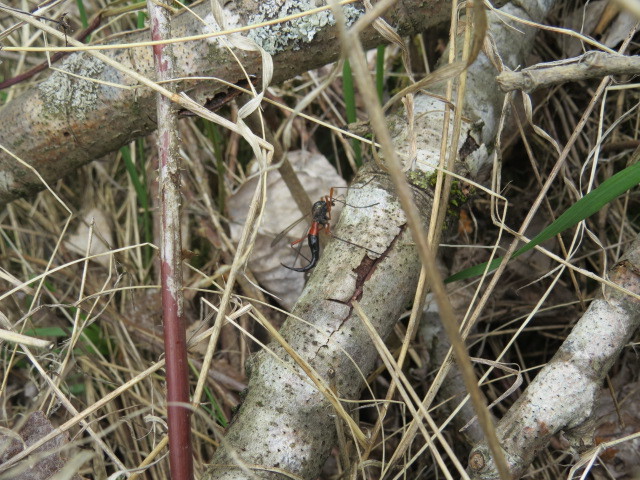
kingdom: Animalia
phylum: Arthropoda
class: Insecta
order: Diptera
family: Tipulidae
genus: Tanyptera
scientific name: Tanyptera atrata
